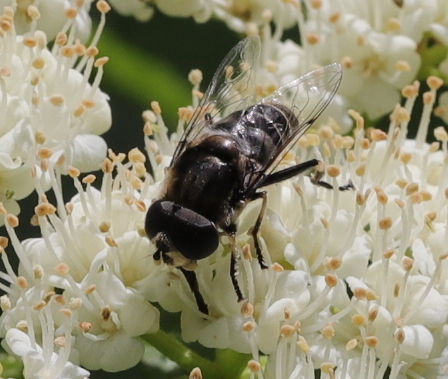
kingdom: Animalia
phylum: Arthropoda
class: Insecta
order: Diptera
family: Syrphidae
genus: Eristalis
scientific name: Eristalis dimidiata
